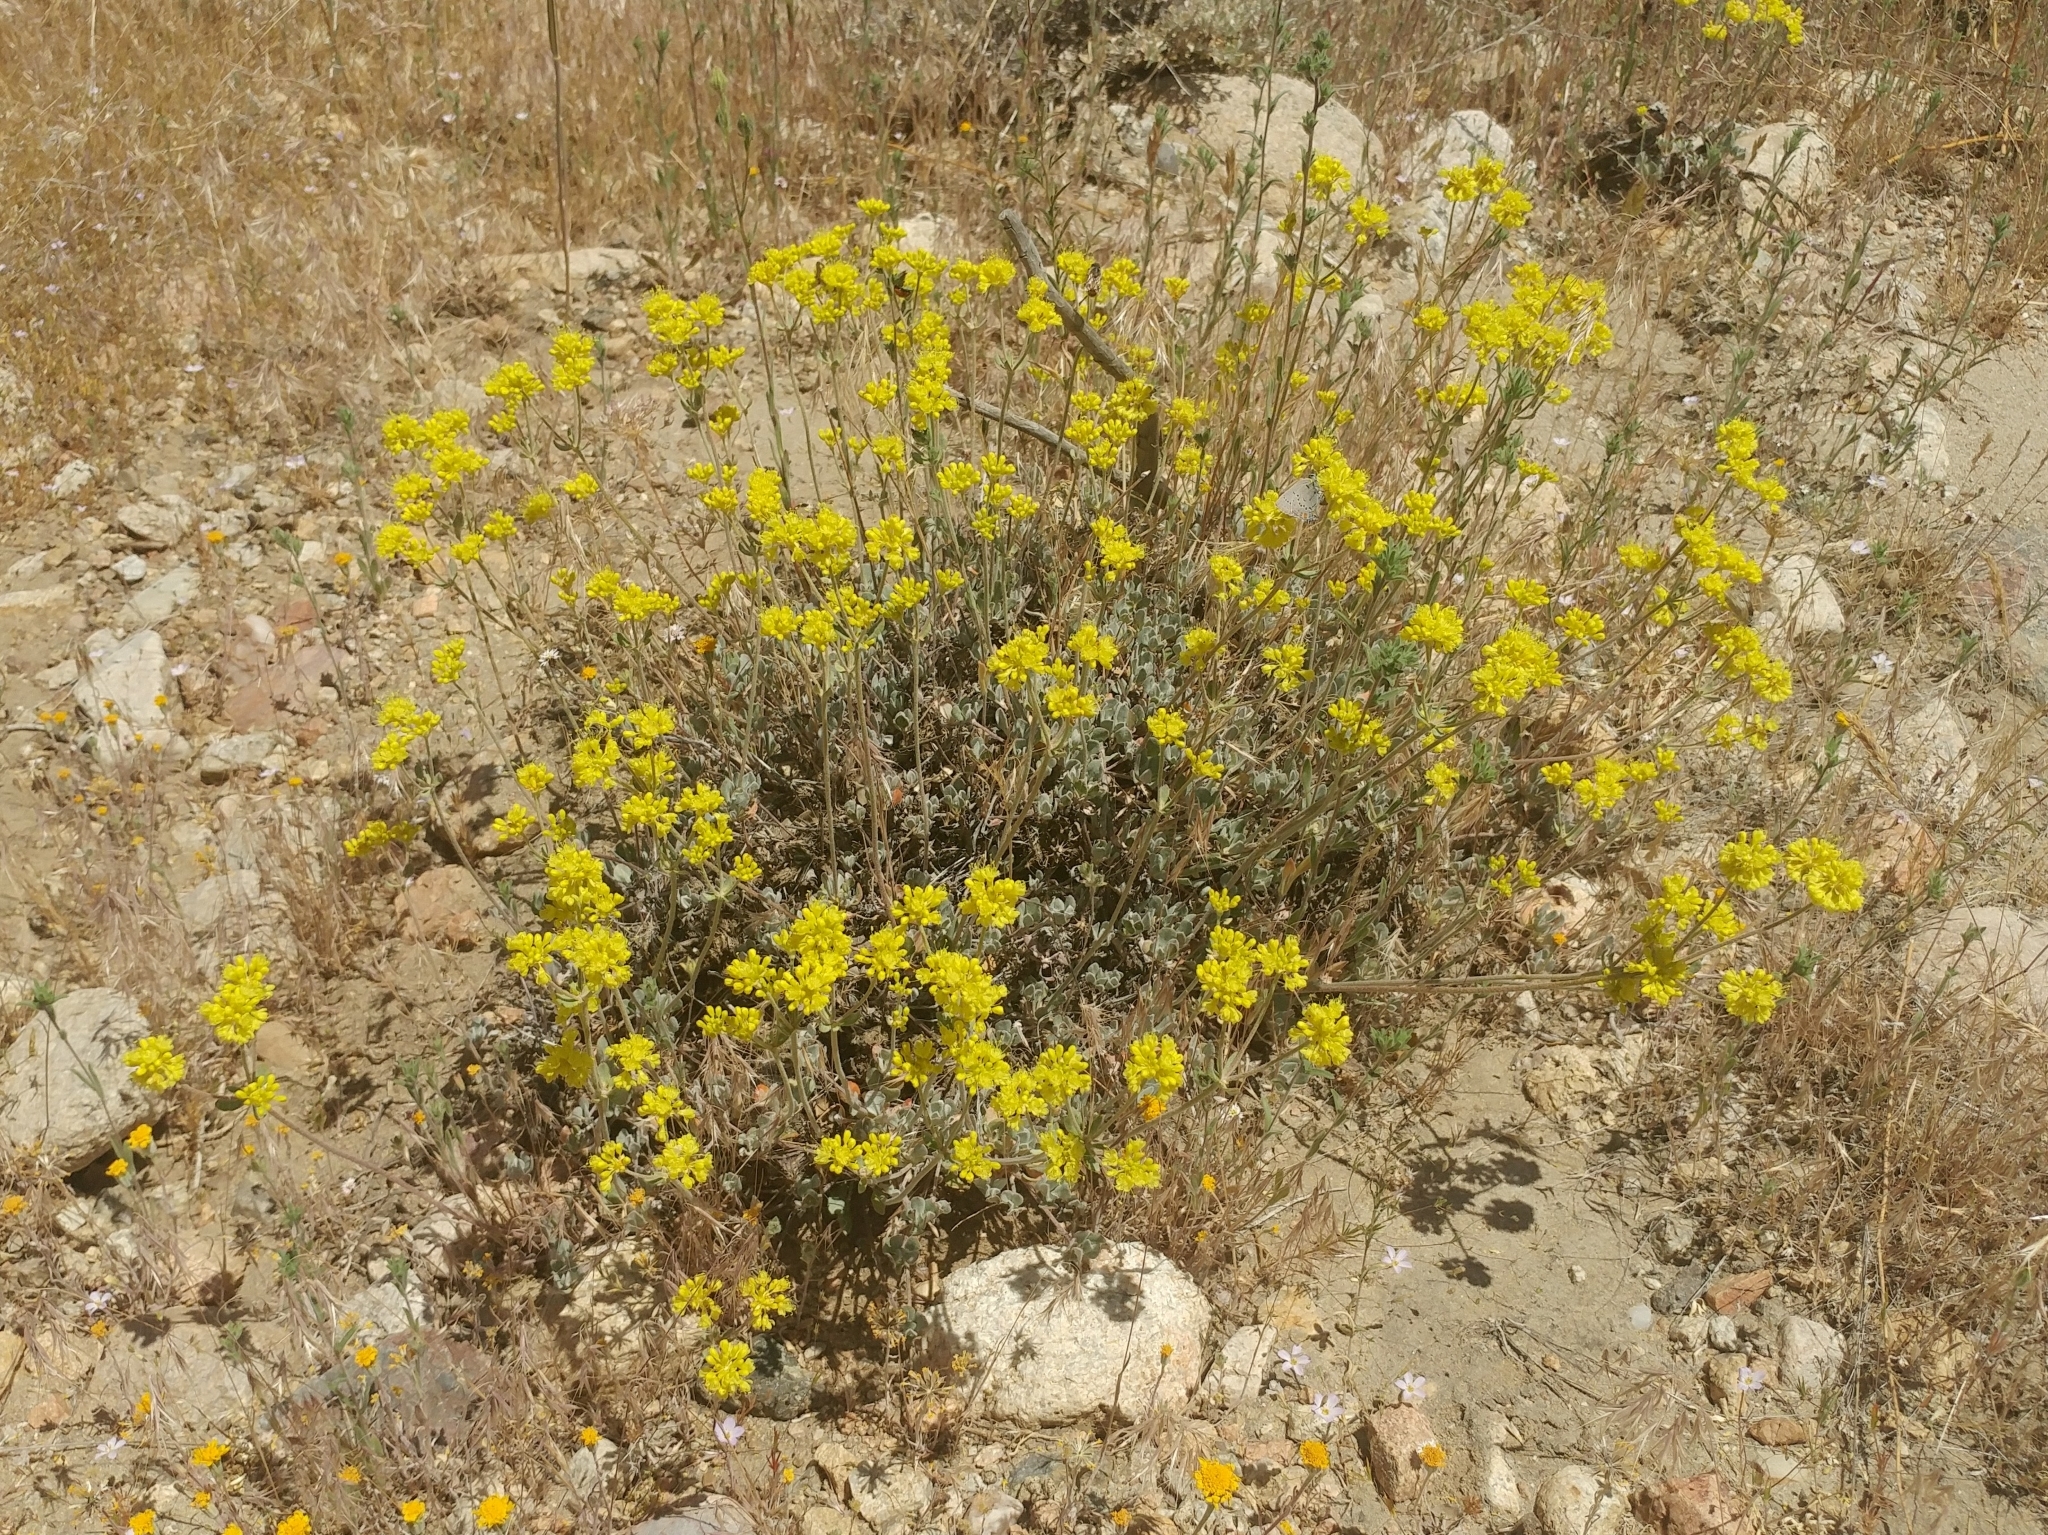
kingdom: Plantae
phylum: Tracheophyta
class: Magnoliopsida
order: Caryophyllales
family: Polygonaceae
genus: Eriogonum
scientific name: Eriogonum umbellatum
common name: Sulfur-buckwheat
